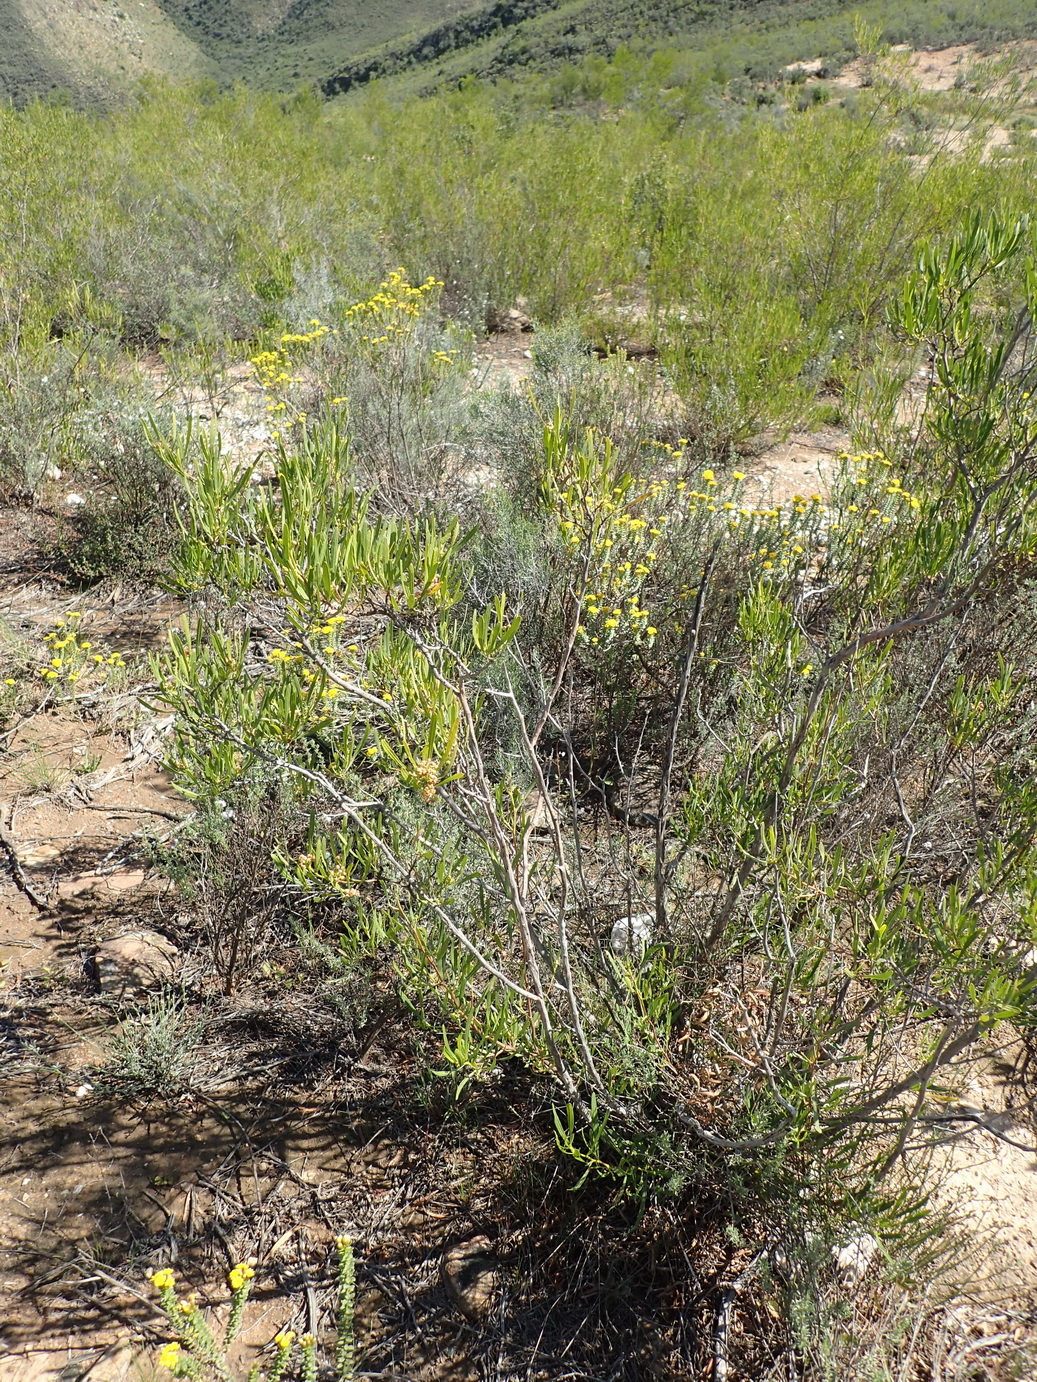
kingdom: Plantae
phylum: Tracheophyta
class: Magnoliopsida
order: Sapindales
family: Sapindaceae
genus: Dodonaea
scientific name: Dodonaea viscosa
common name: Hopbush
